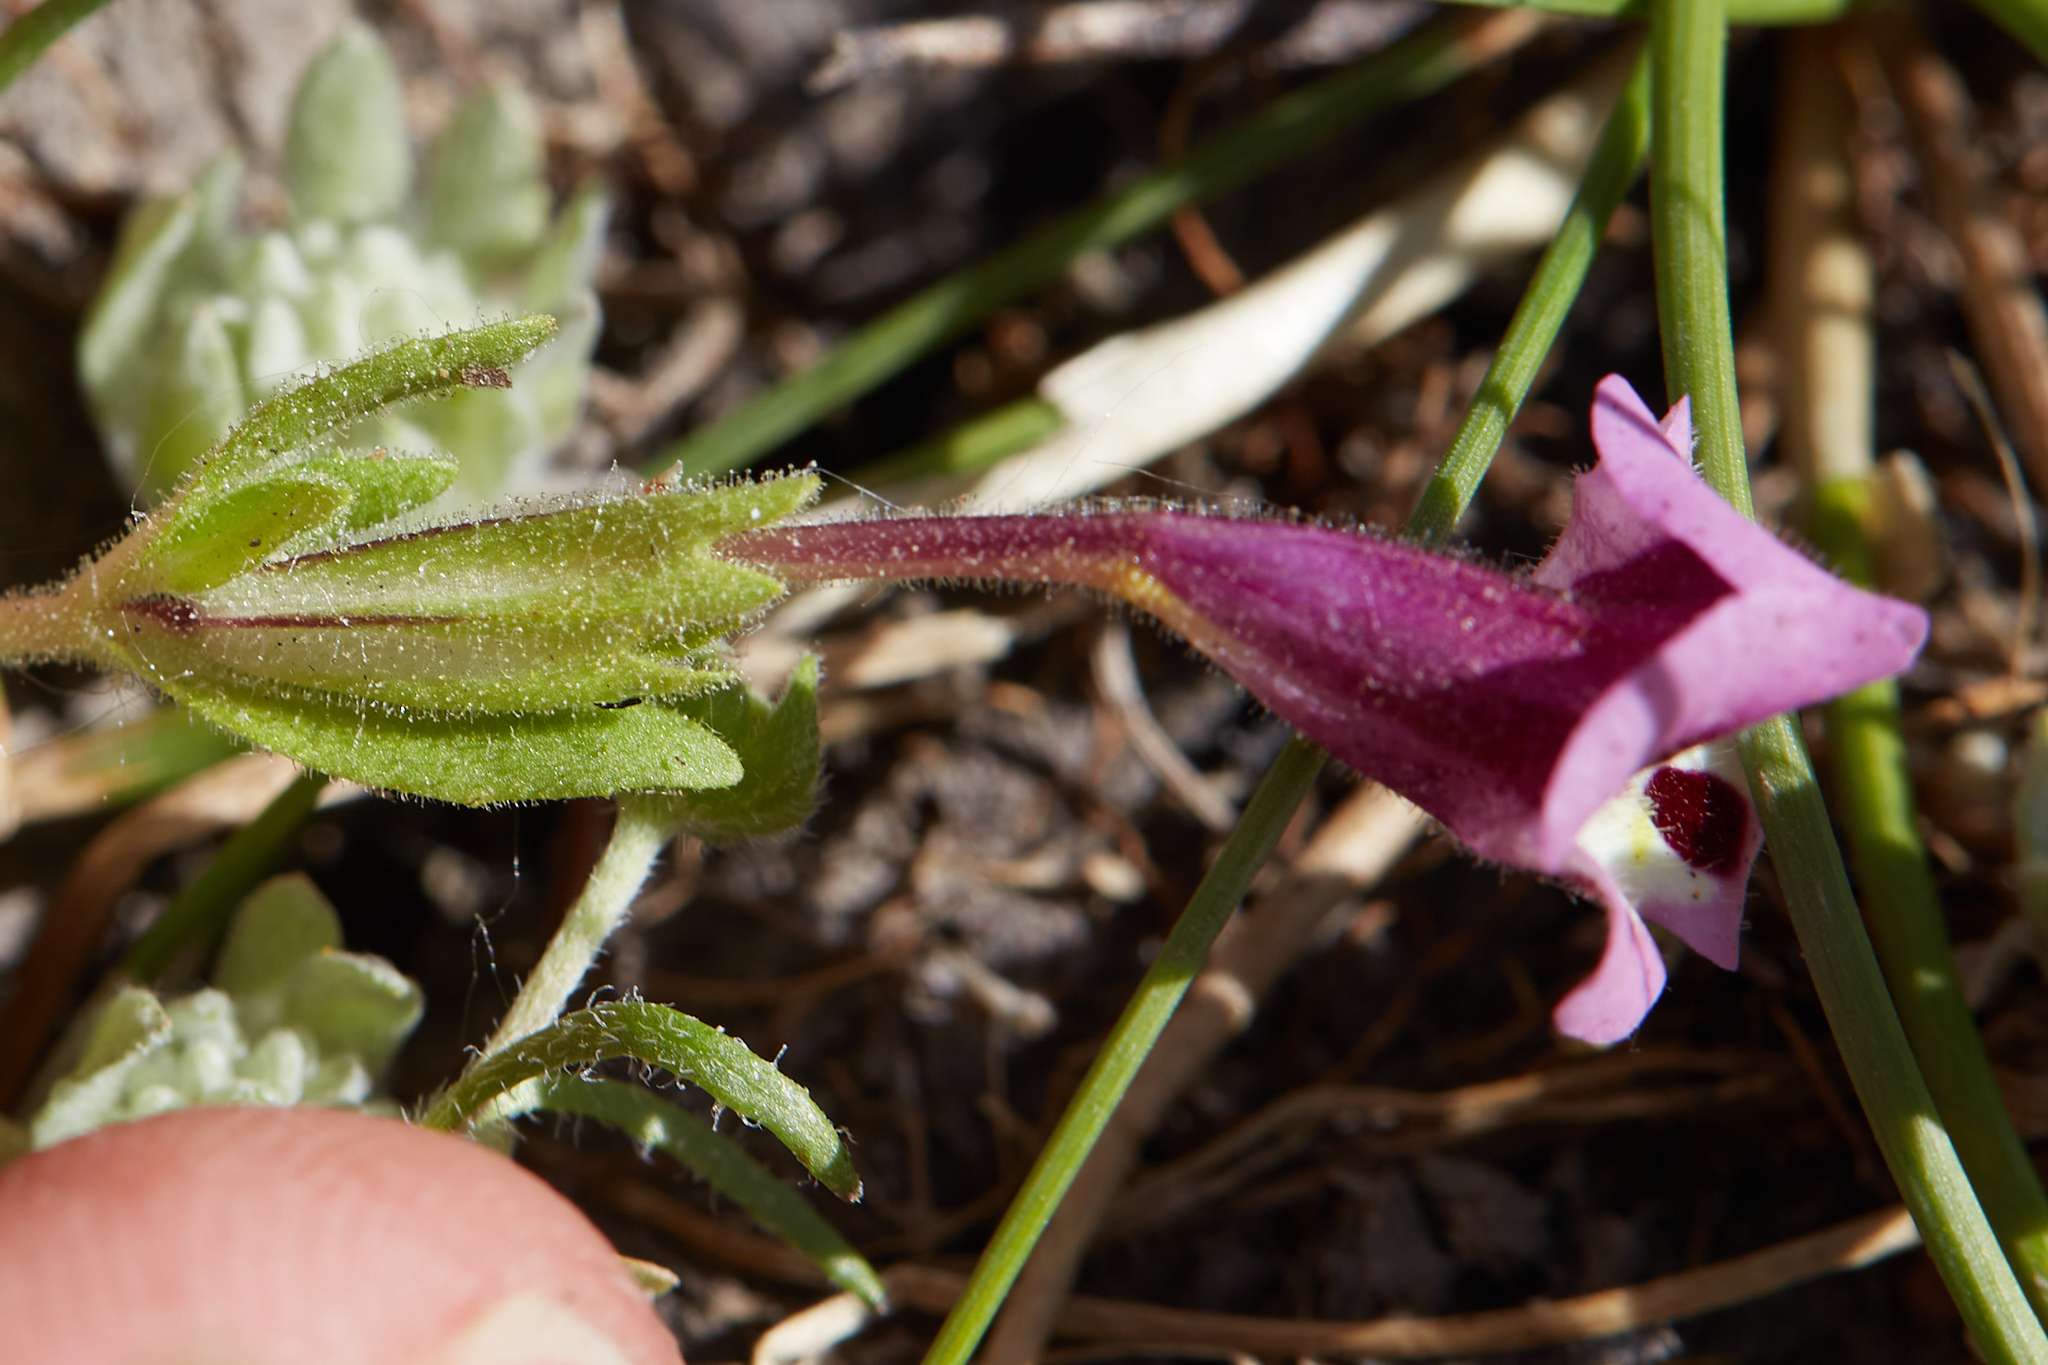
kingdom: Plantae
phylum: Tracheophyta
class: Magnoliopsida
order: Lamiales
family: Phrymaceae
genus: Diplacus
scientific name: Diplacus tricolor
